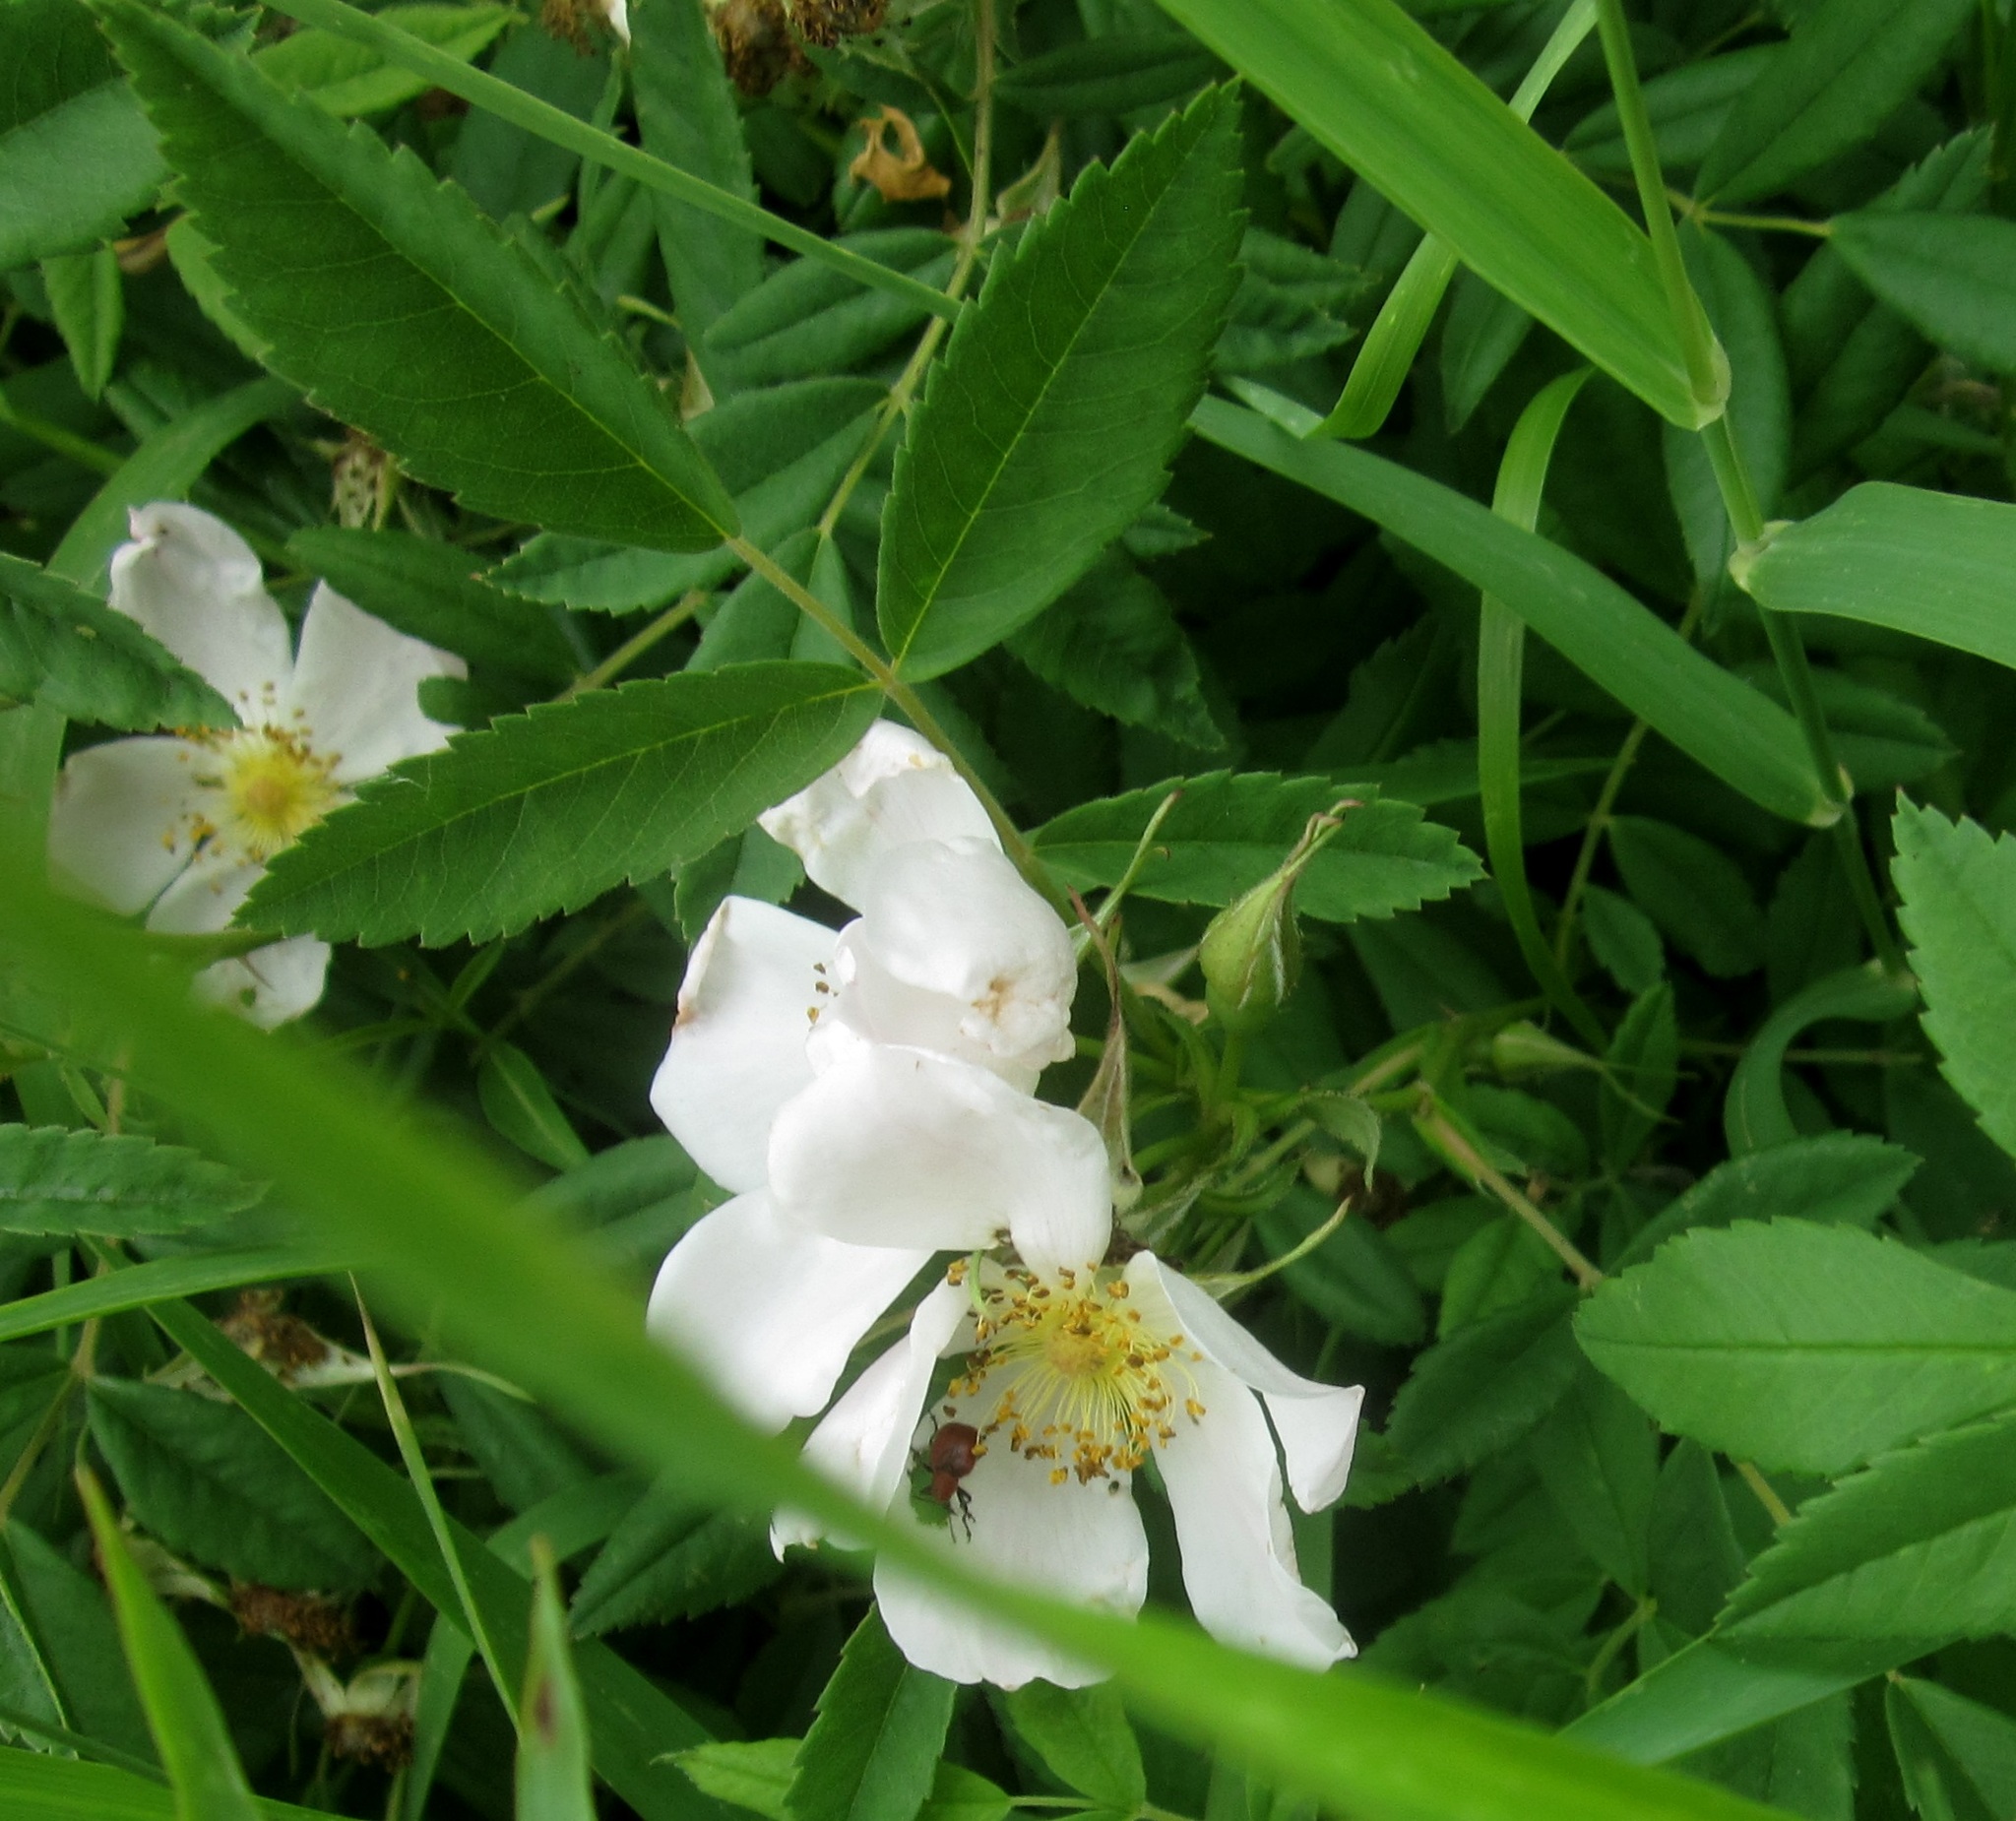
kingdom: Plantae
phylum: Tracheophyta
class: Magnoliopsida
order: Rosales
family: Rosaceae
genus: Rosa
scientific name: Rosa blanda
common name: Smooth rose
